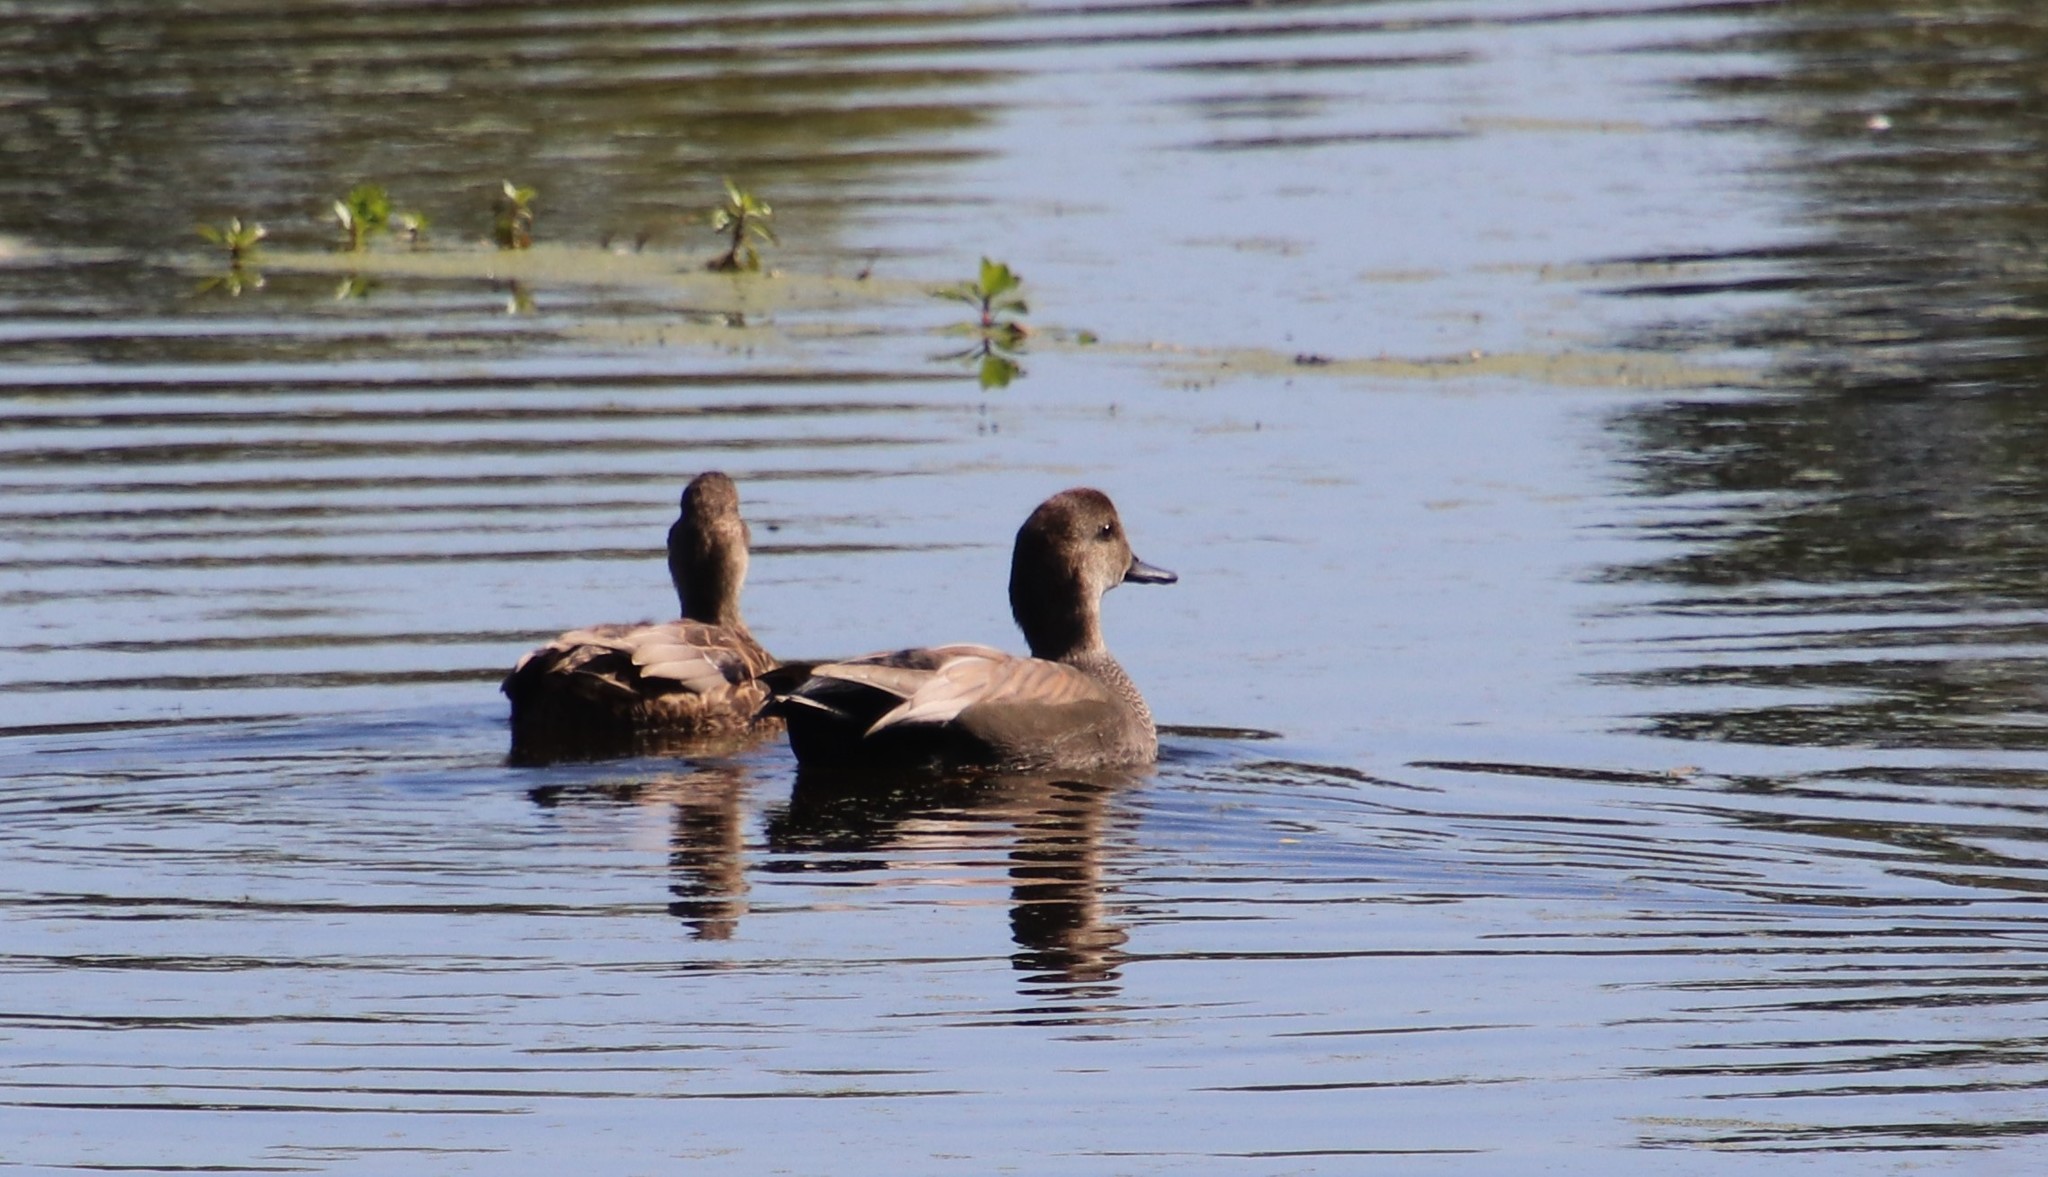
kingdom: Animalia
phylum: Chordata
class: Aves
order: Anseriformes
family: Anatidae
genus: Mareca
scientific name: Mareca strepera
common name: Gadwall
